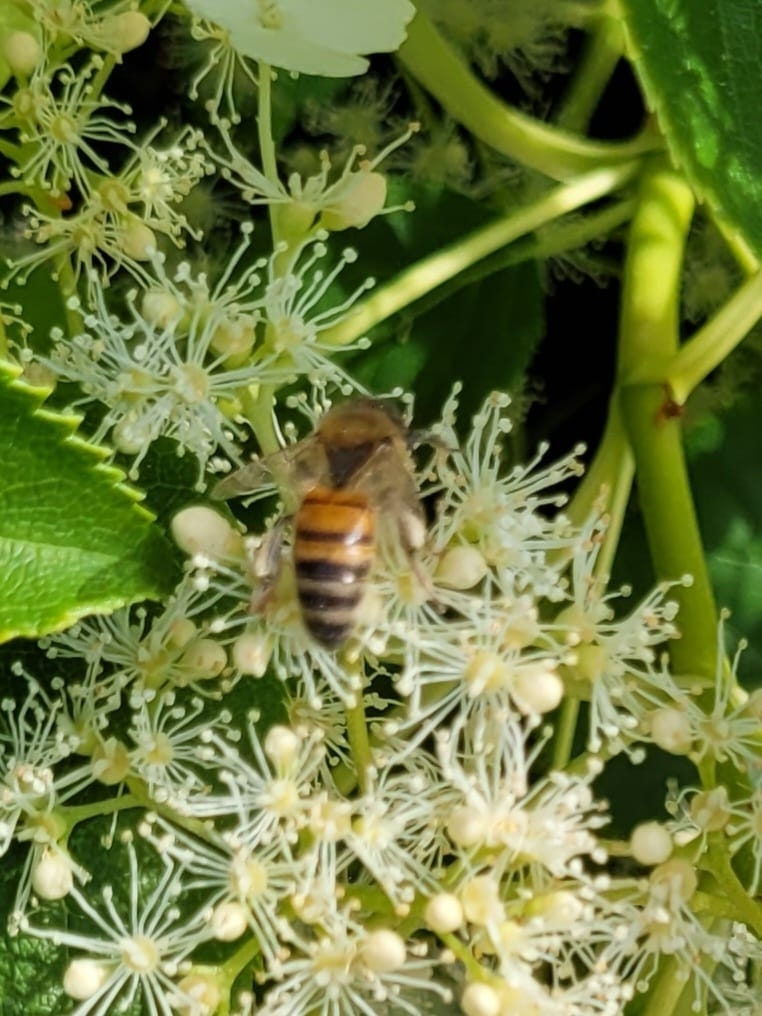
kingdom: Animalia
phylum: Arthropoda
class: Insecta
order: Hymenoptera
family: Apidae
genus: Apis
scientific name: Apis mellifera
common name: Honey bee
